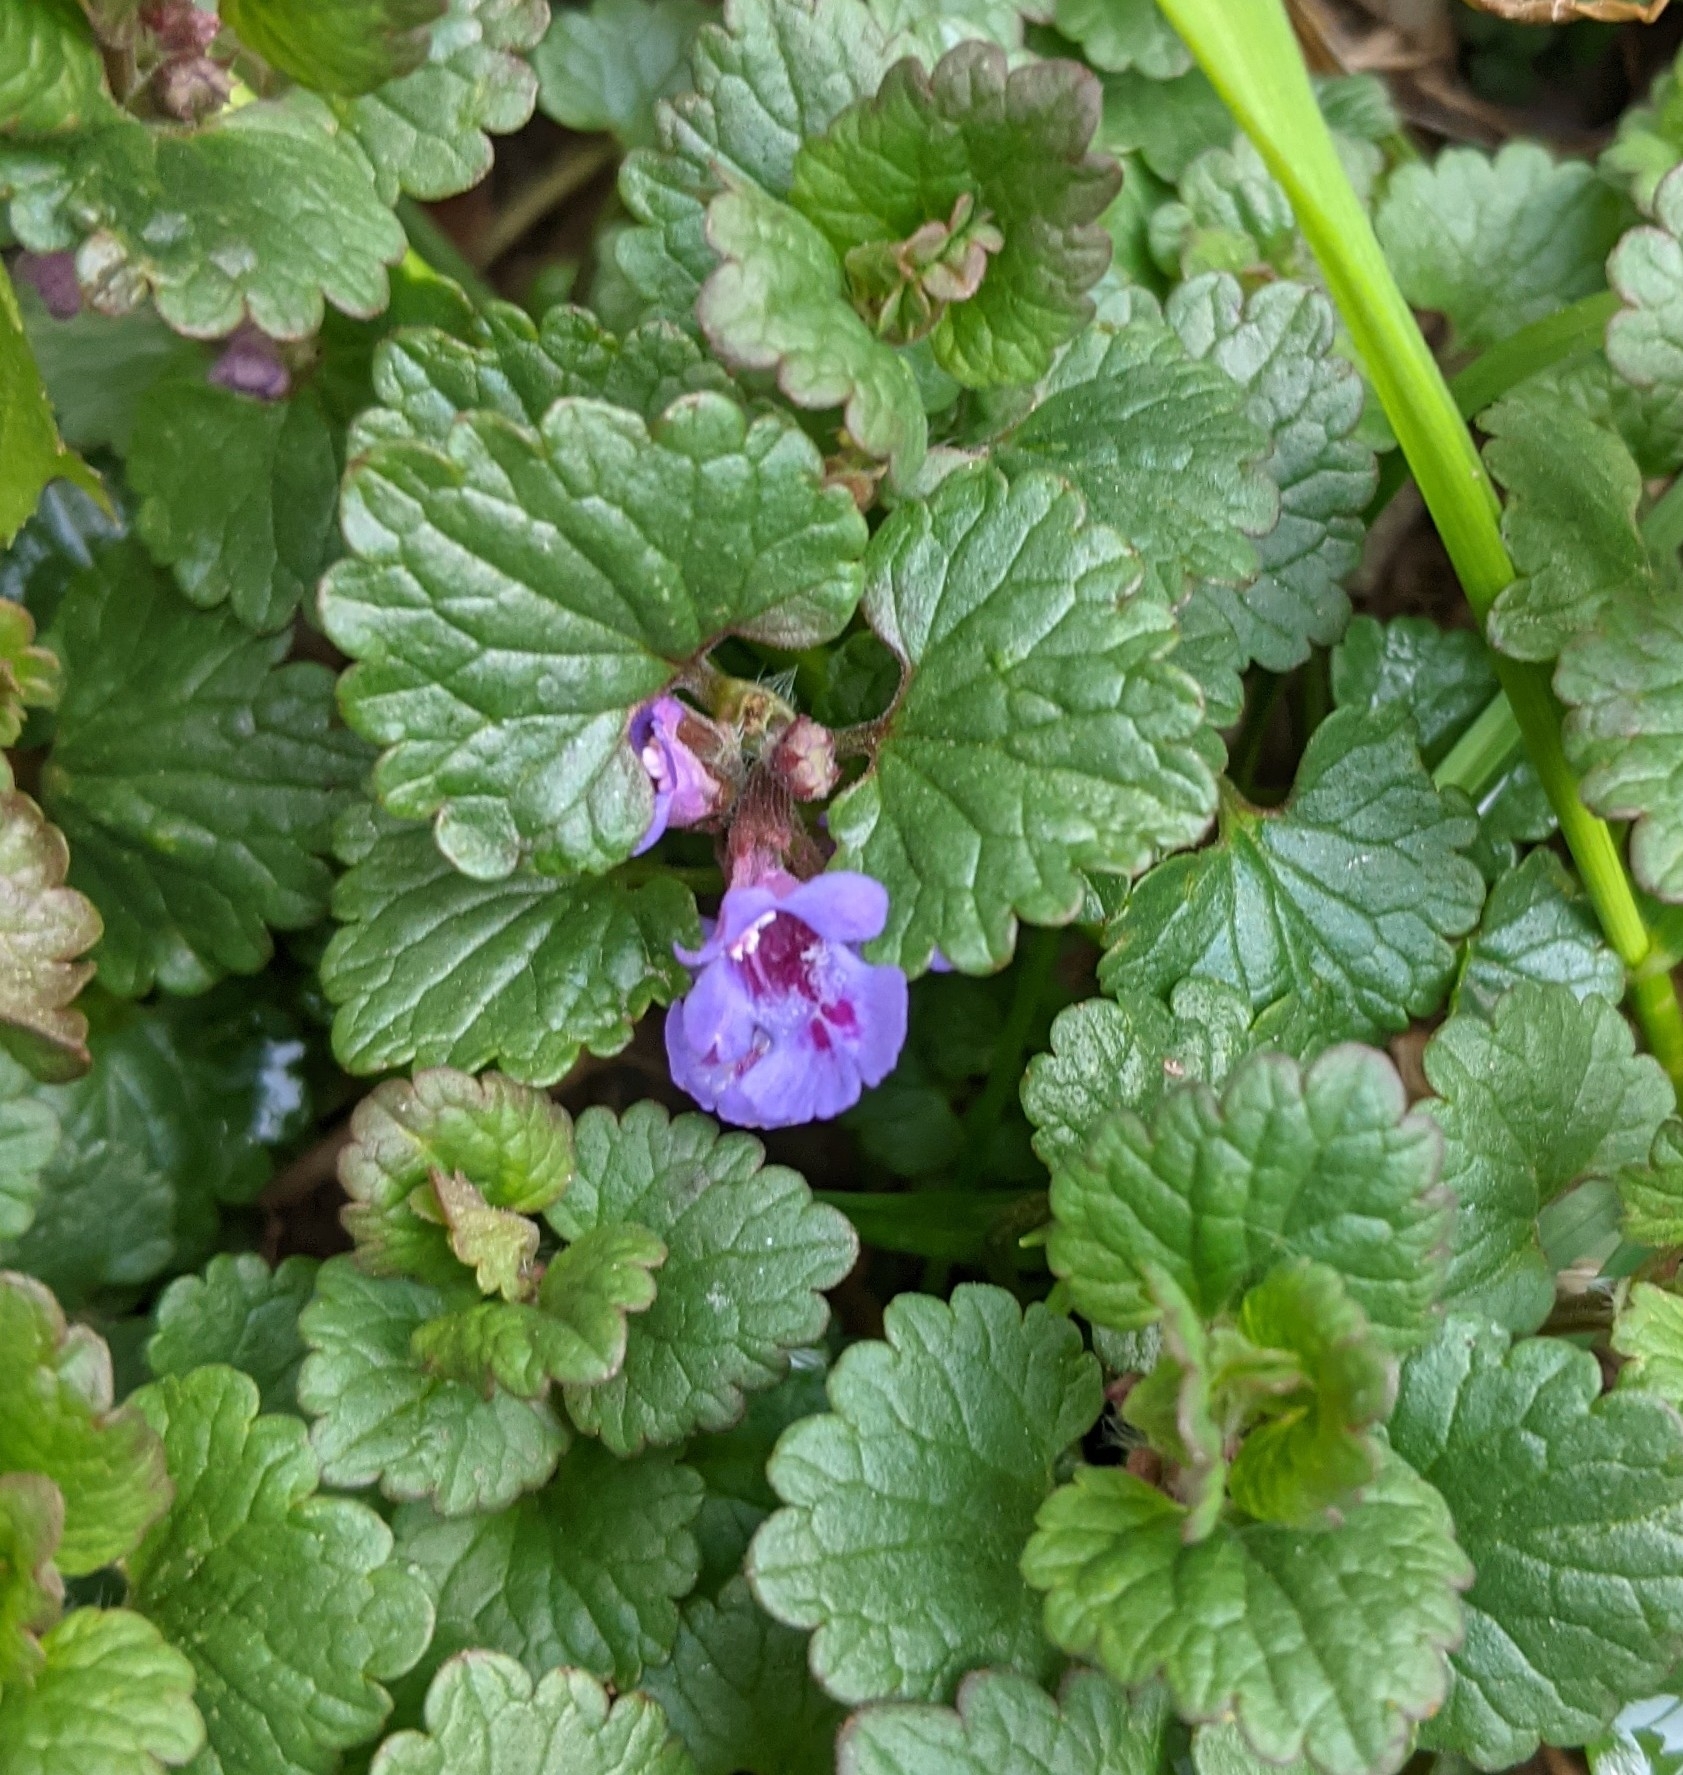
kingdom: Plantae
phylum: Tracheophyta
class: Magnoliopsida
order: Lamiales
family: Lamiaceae
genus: Glechoma
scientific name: Glechoma hederacea
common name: Ground ivy
